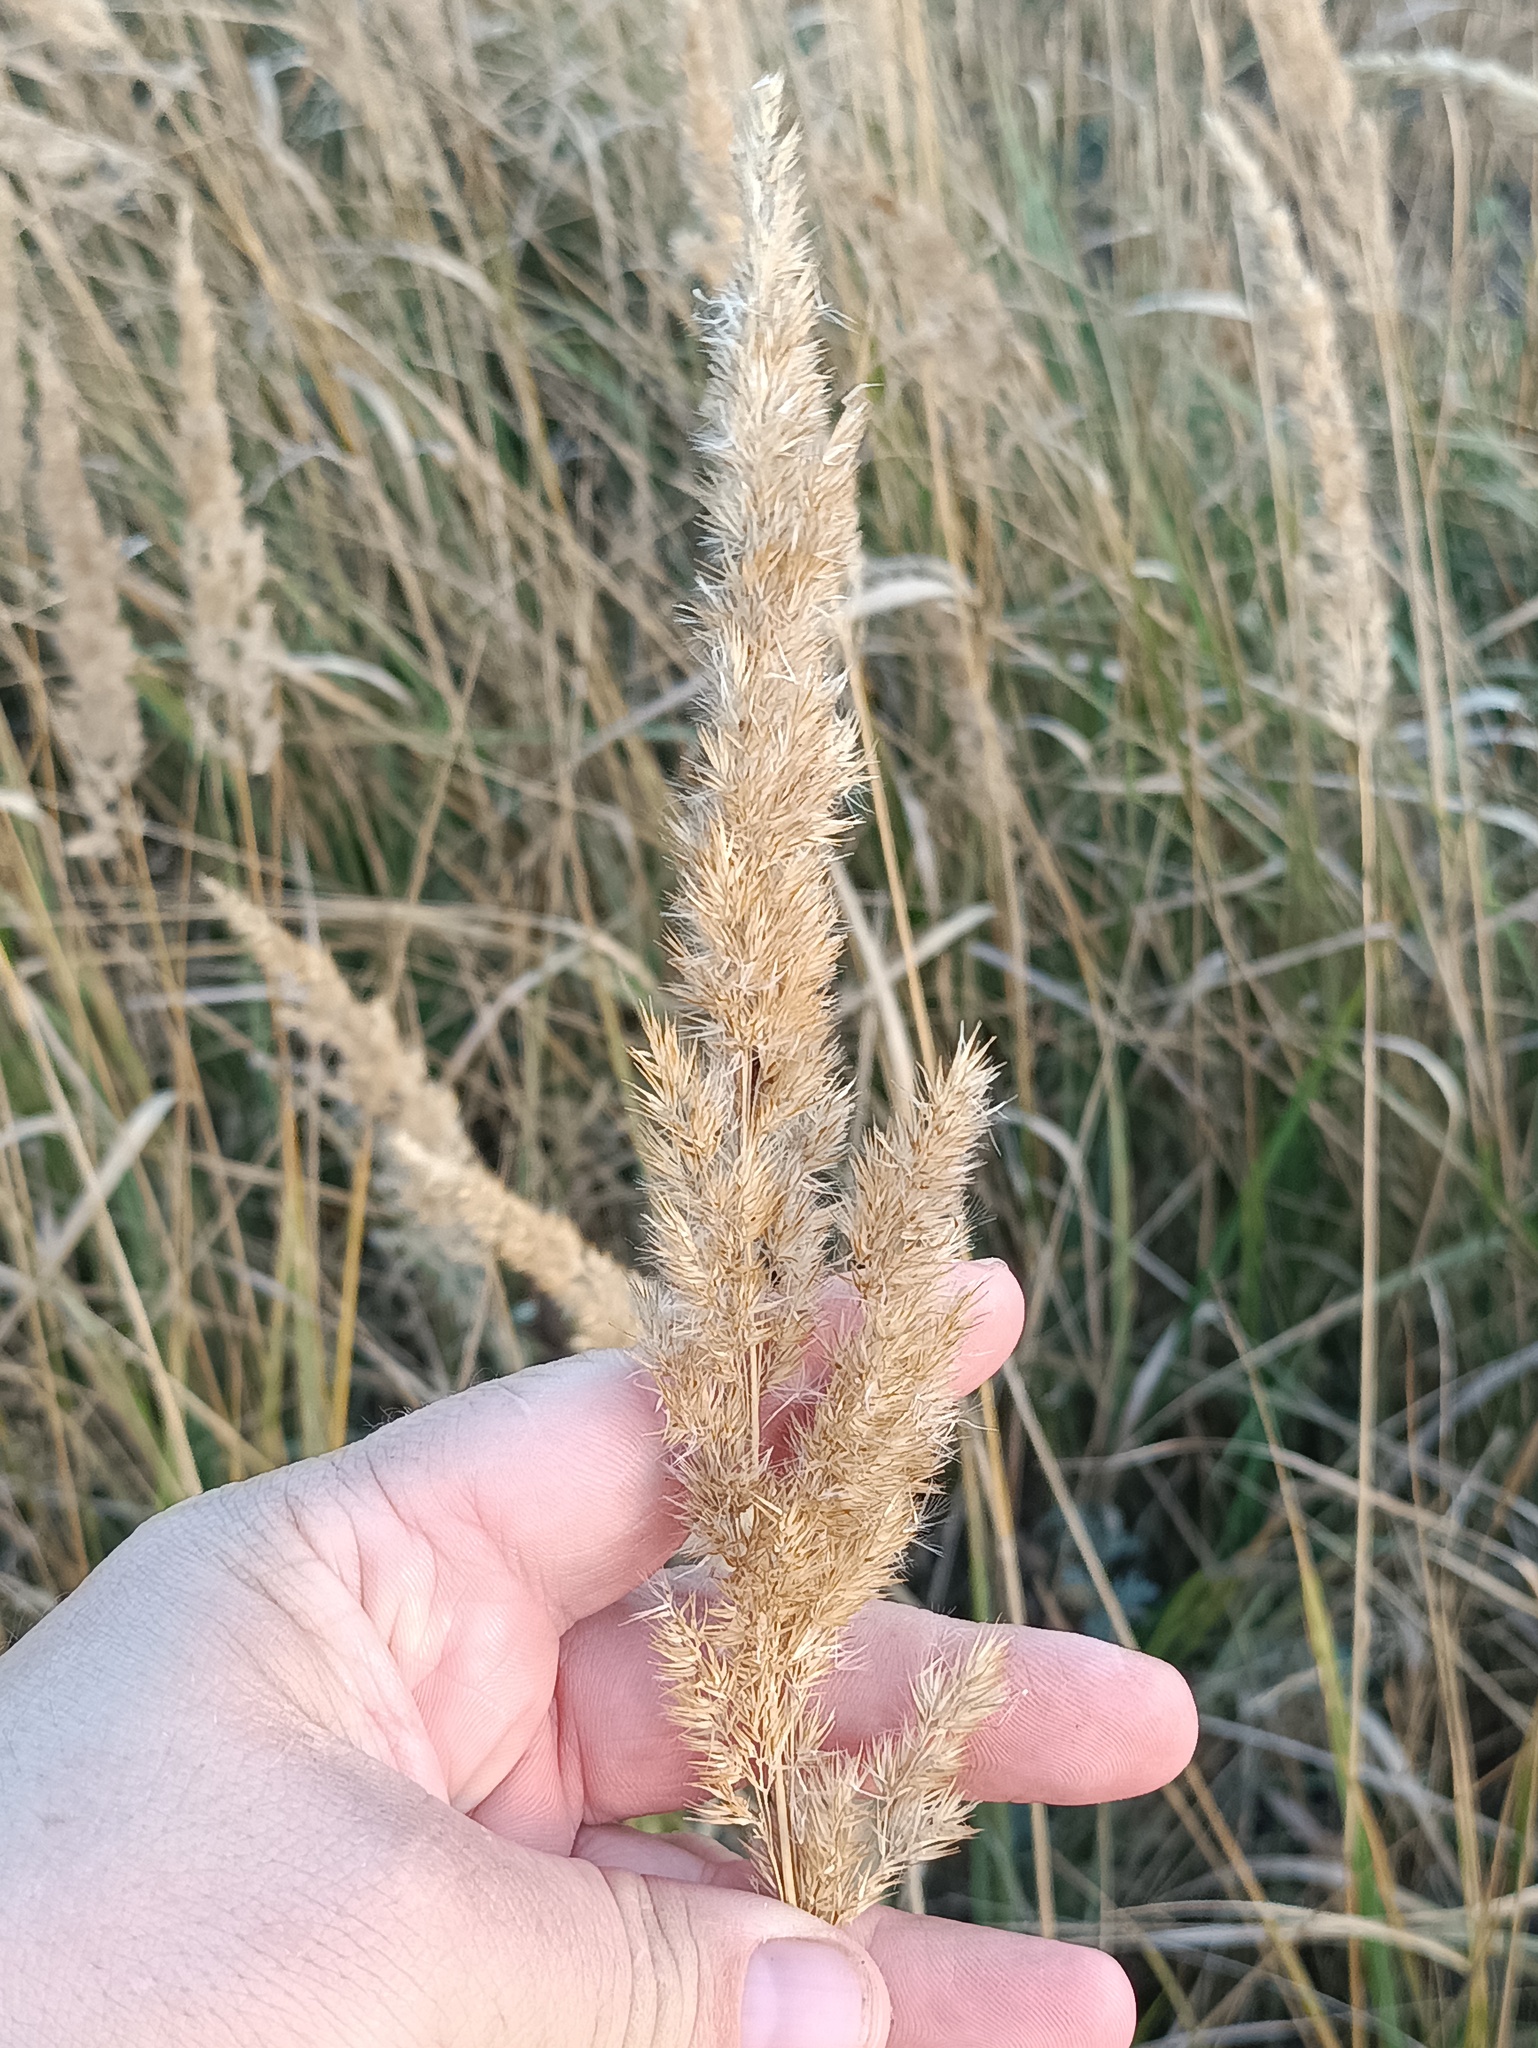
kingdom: Plantae
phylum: Tracheophyta
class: Liliopsida
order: Poales
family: Poaceae
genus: Calamagrostis
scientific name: Calamagrostis epigejos
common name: Wood small-reed
